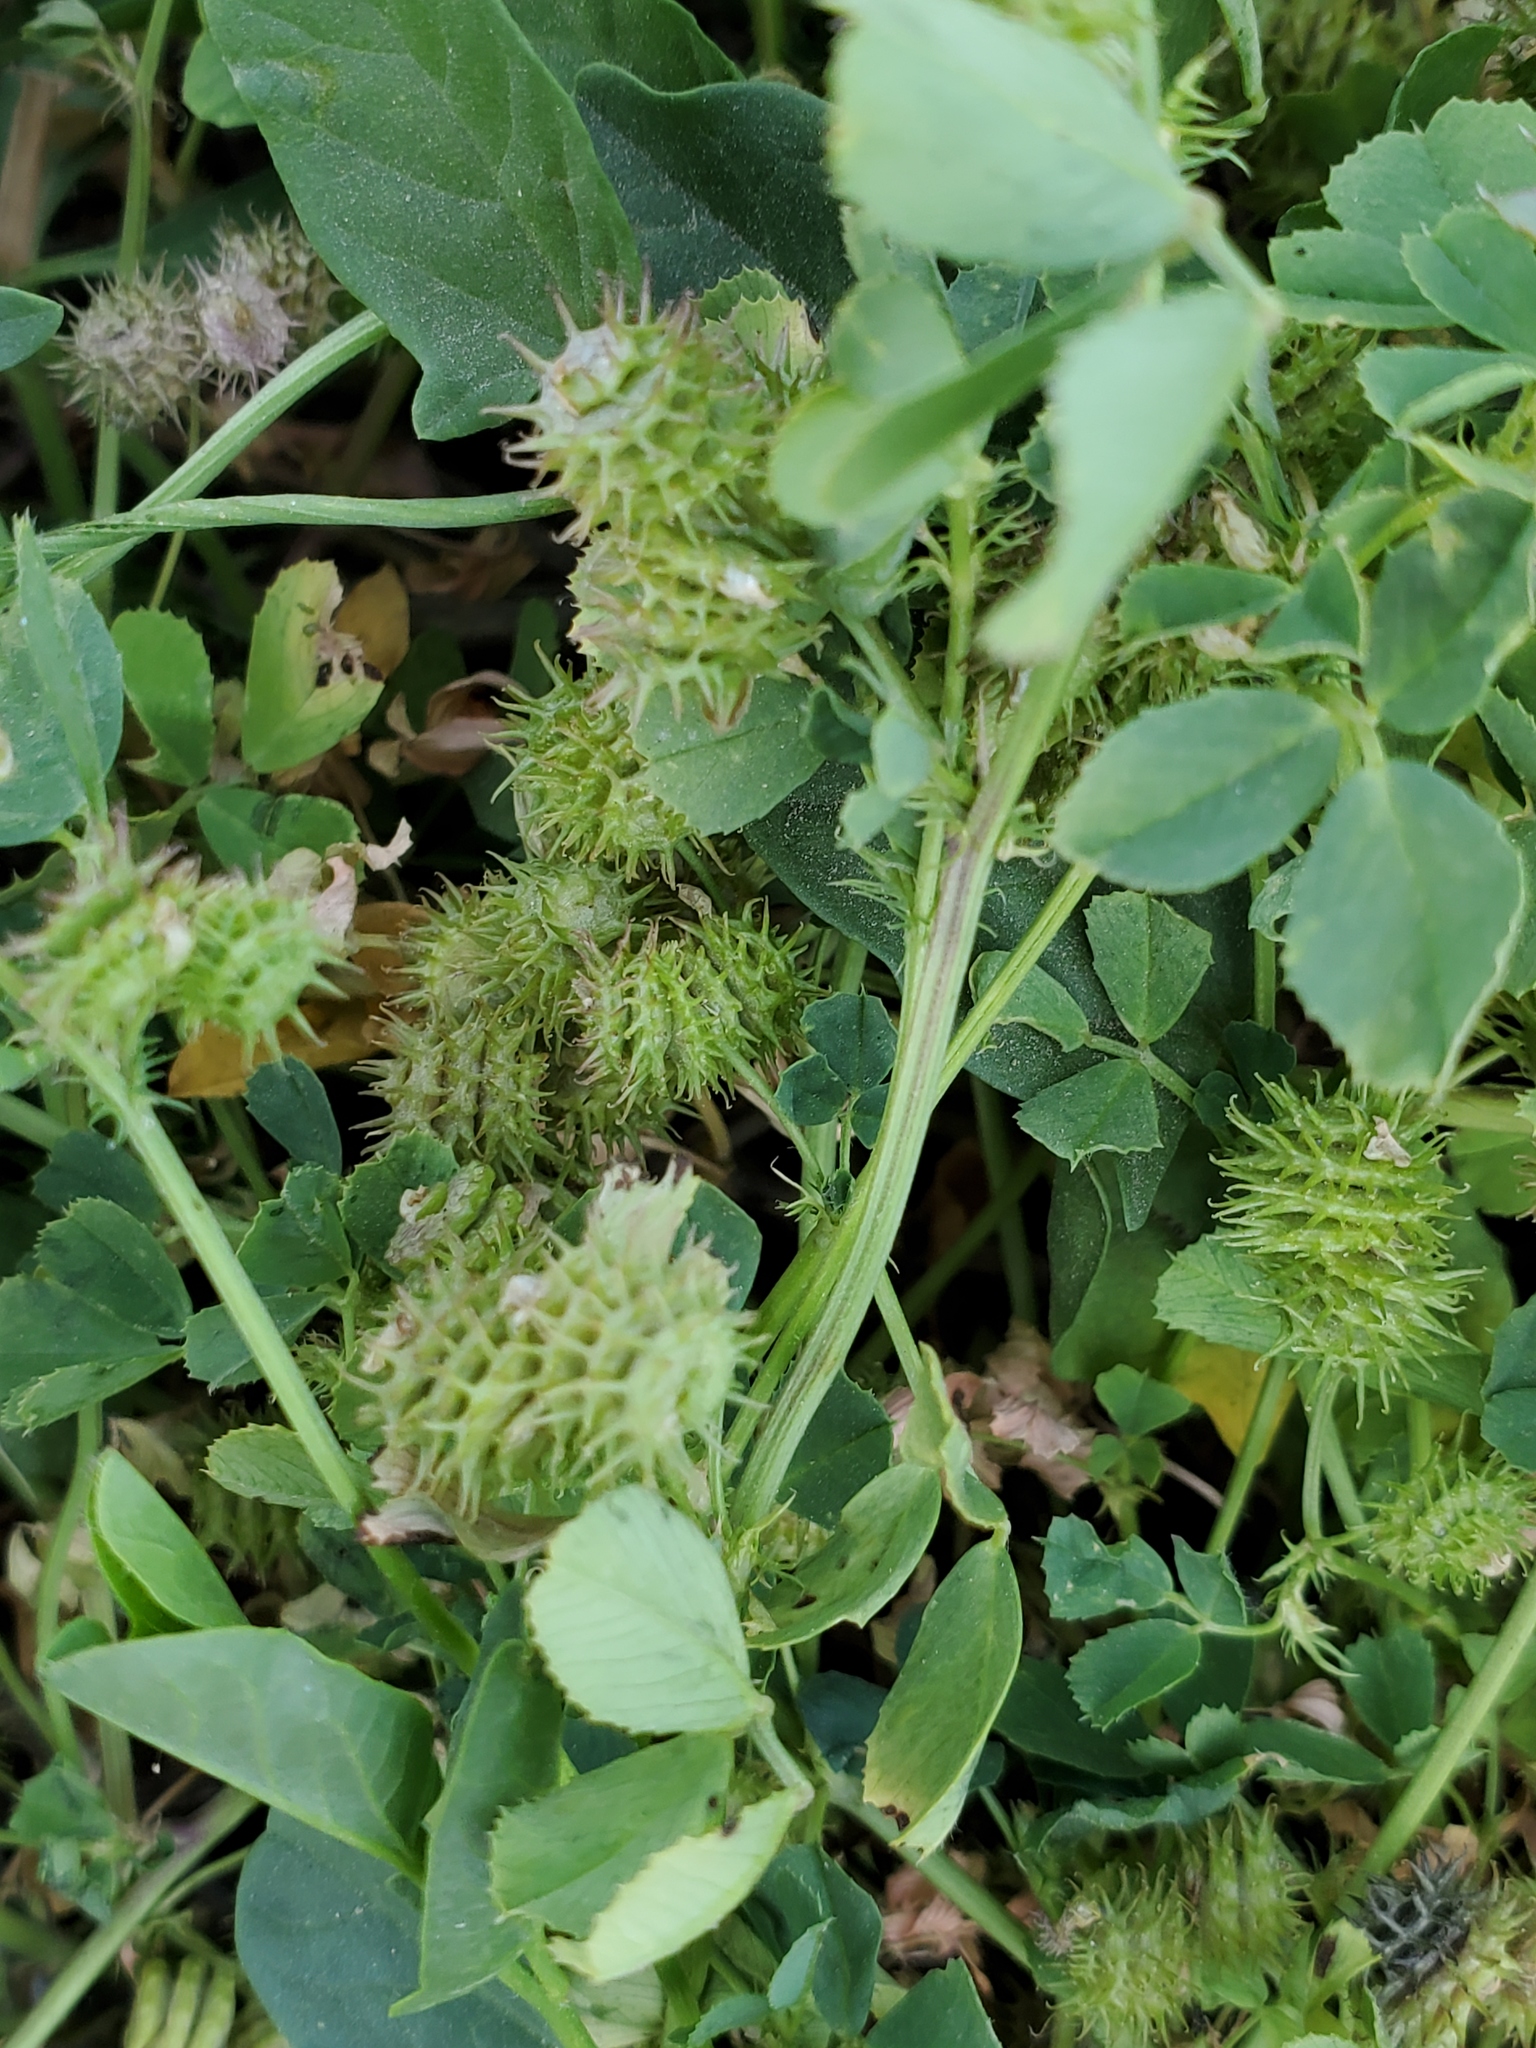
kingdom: Plantae
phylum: Tracheophyta
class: Magnoliopsida
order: Fabales
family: Fabaceae
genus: Medicago
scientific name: Medicago polymorpha
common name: Burclover
